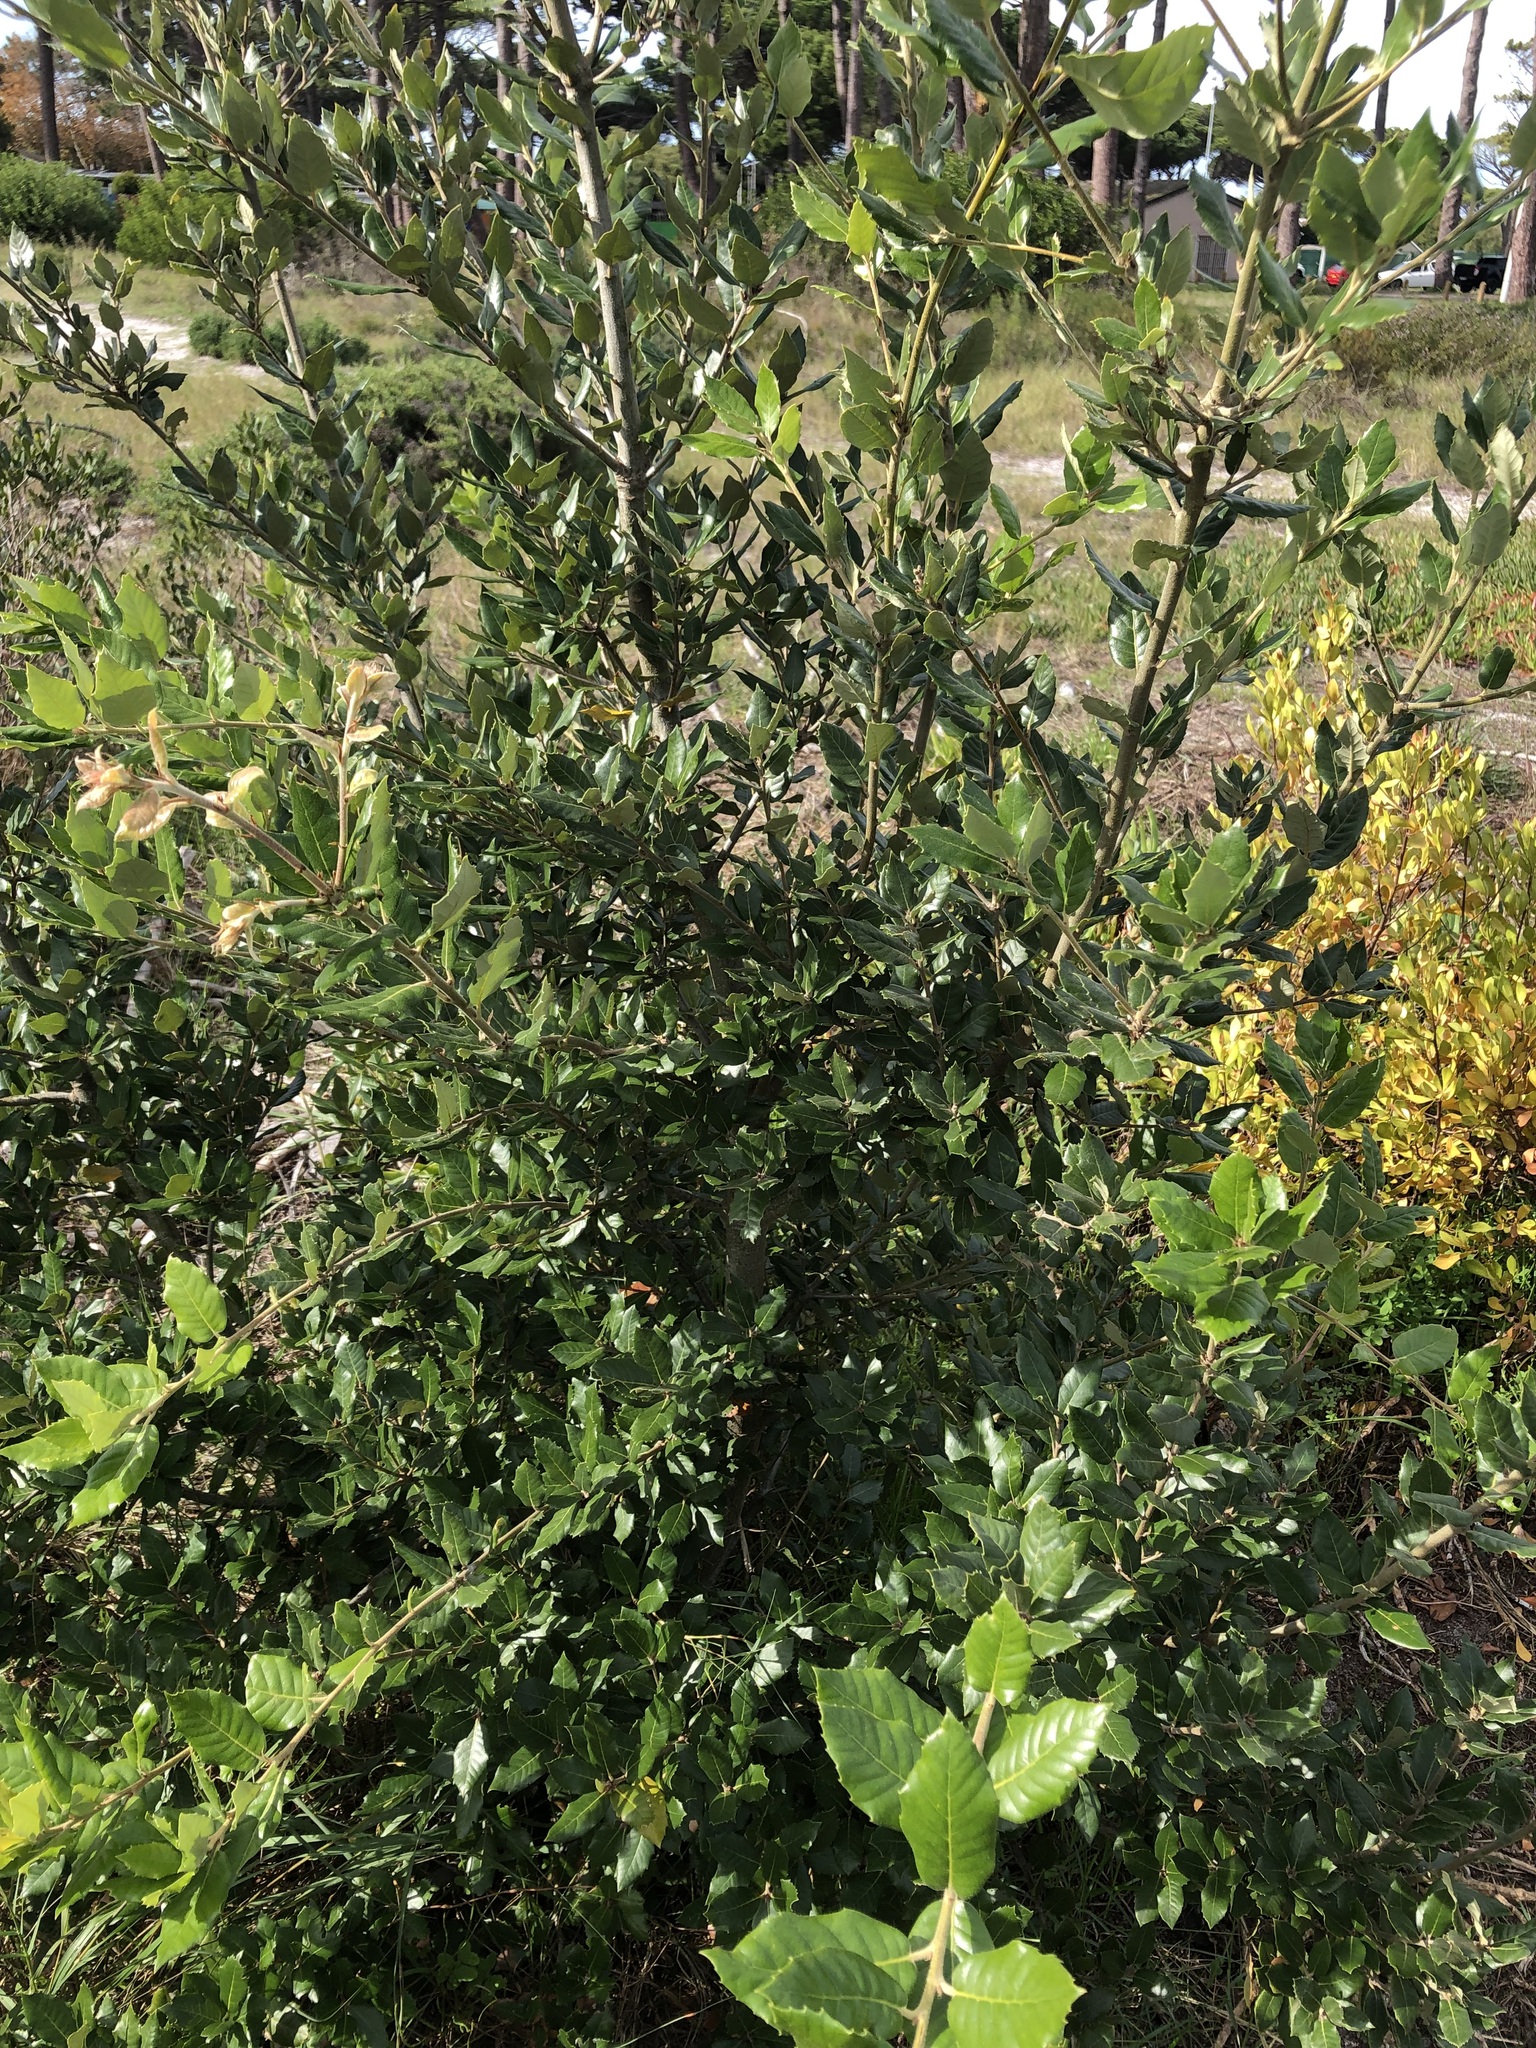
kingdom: Plantae
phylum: Tracheophyta
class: Magnoliopsida
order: Fagales
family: Fagaceae
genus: Quercus
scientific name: Quercus ilex
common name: Evergreen oak
